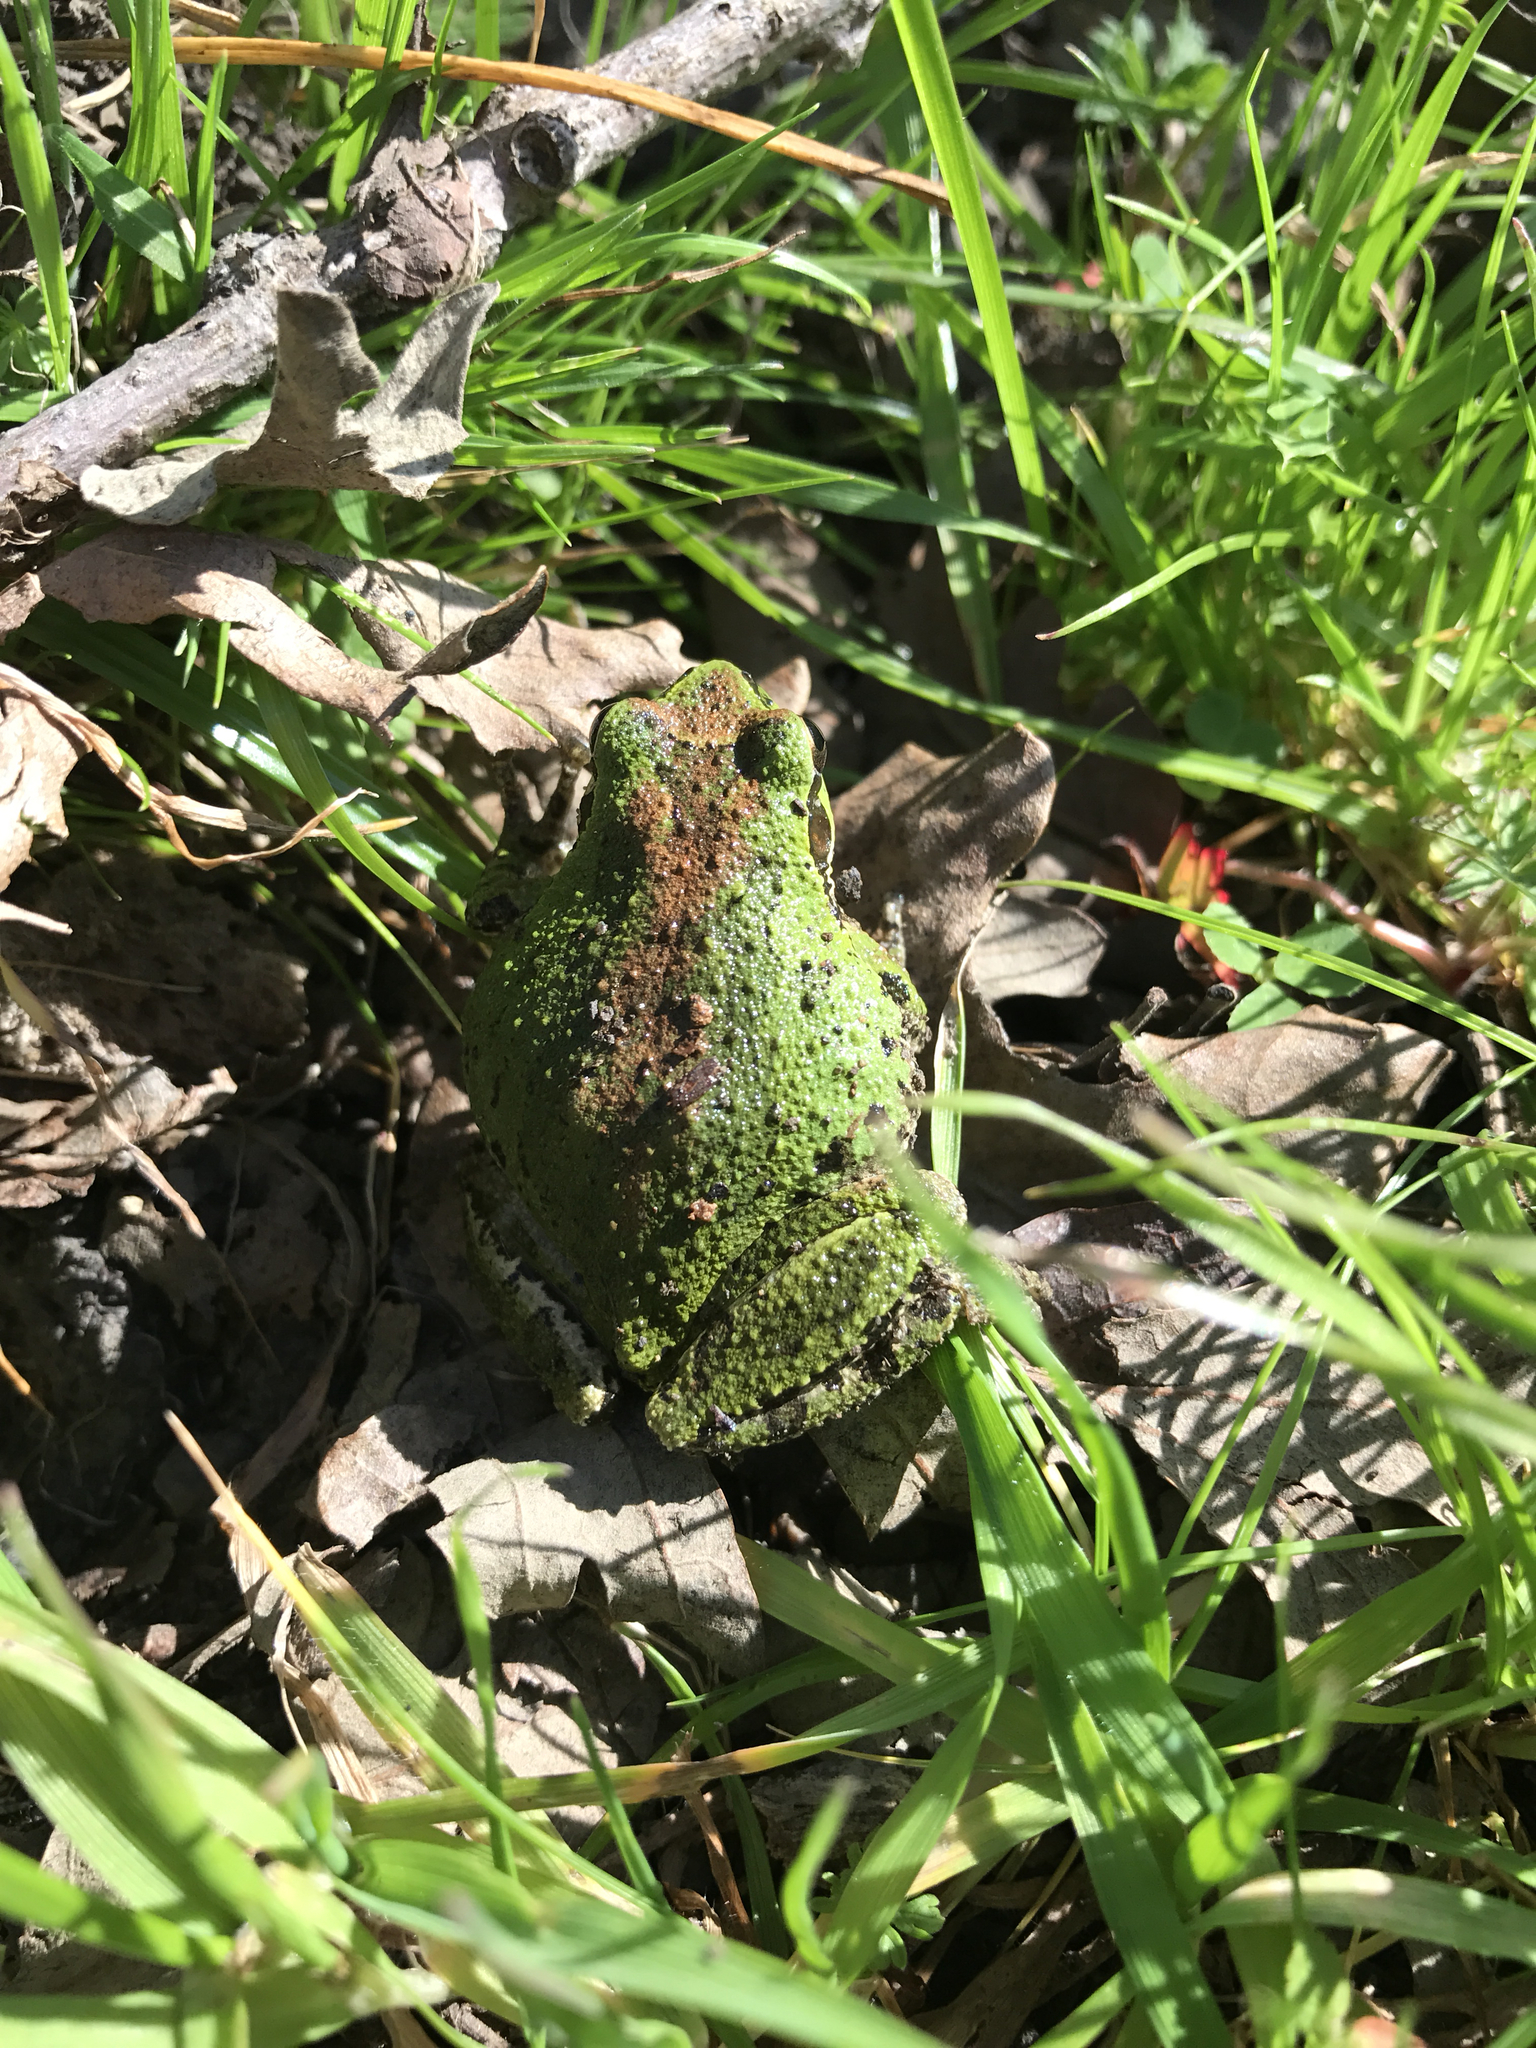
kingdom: Animalia
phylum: Chordata
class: Amphibia
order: Anura
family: Hylidae
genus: Pseudacris
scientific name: Pseudacris regilla
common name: Pacific chorus frog
